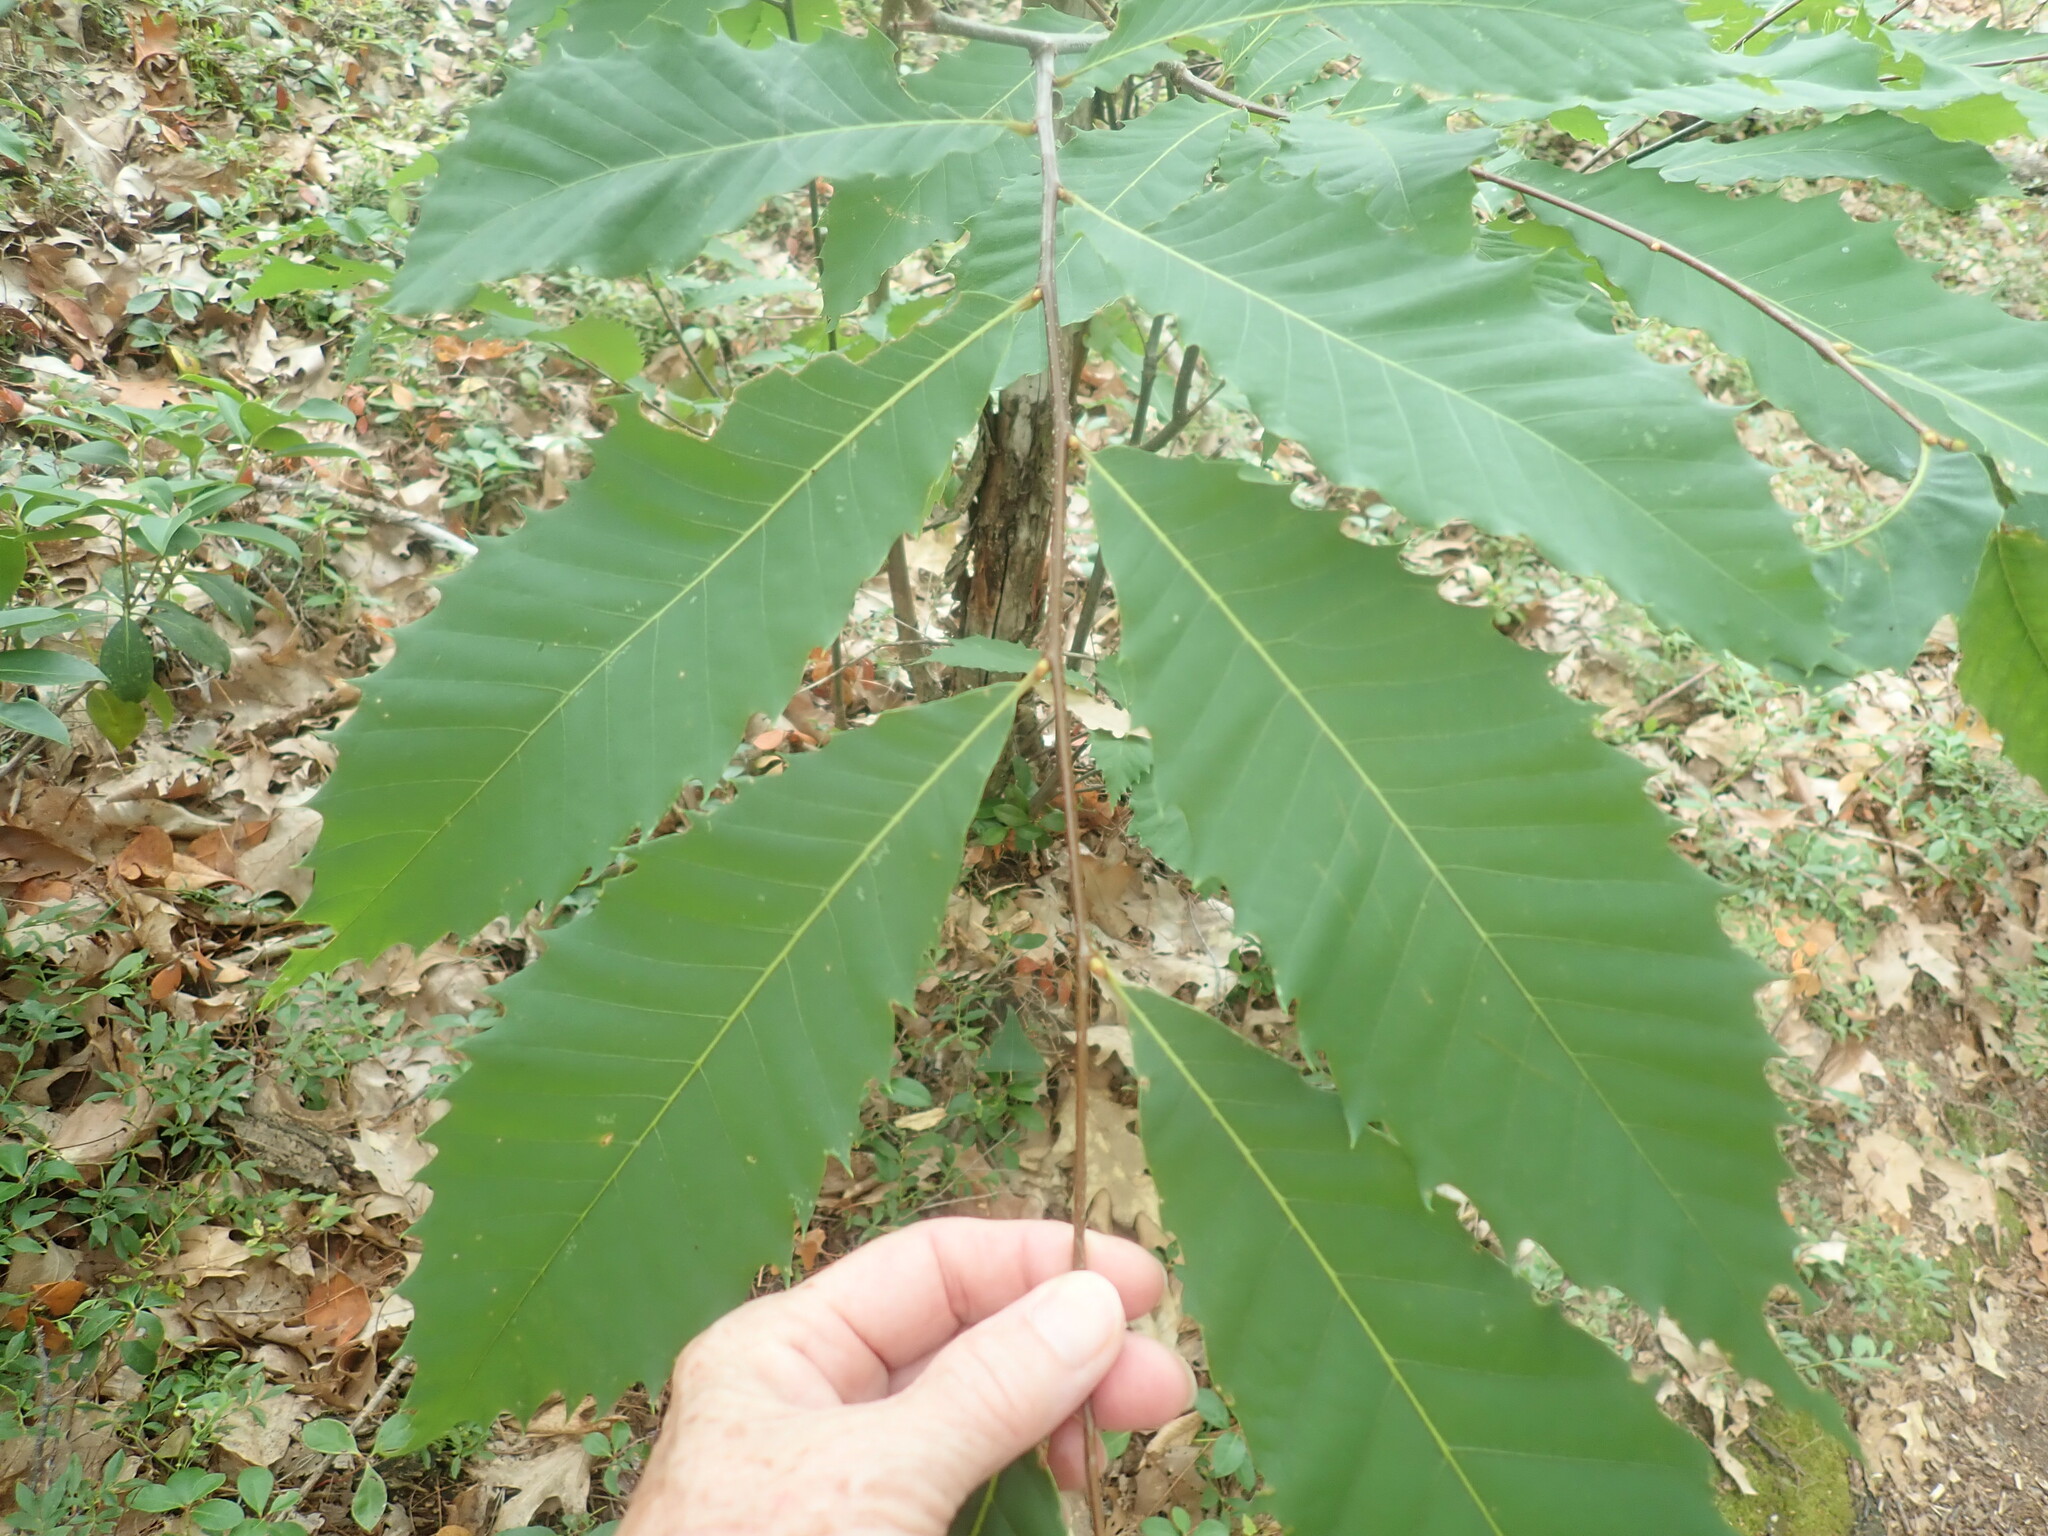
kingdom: Plantae
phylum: Tracheophyta
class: Magnoliopsida
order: Fagales
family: Fagaceae
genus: Castanea
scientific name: Castanea dentata
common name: American chestnut
